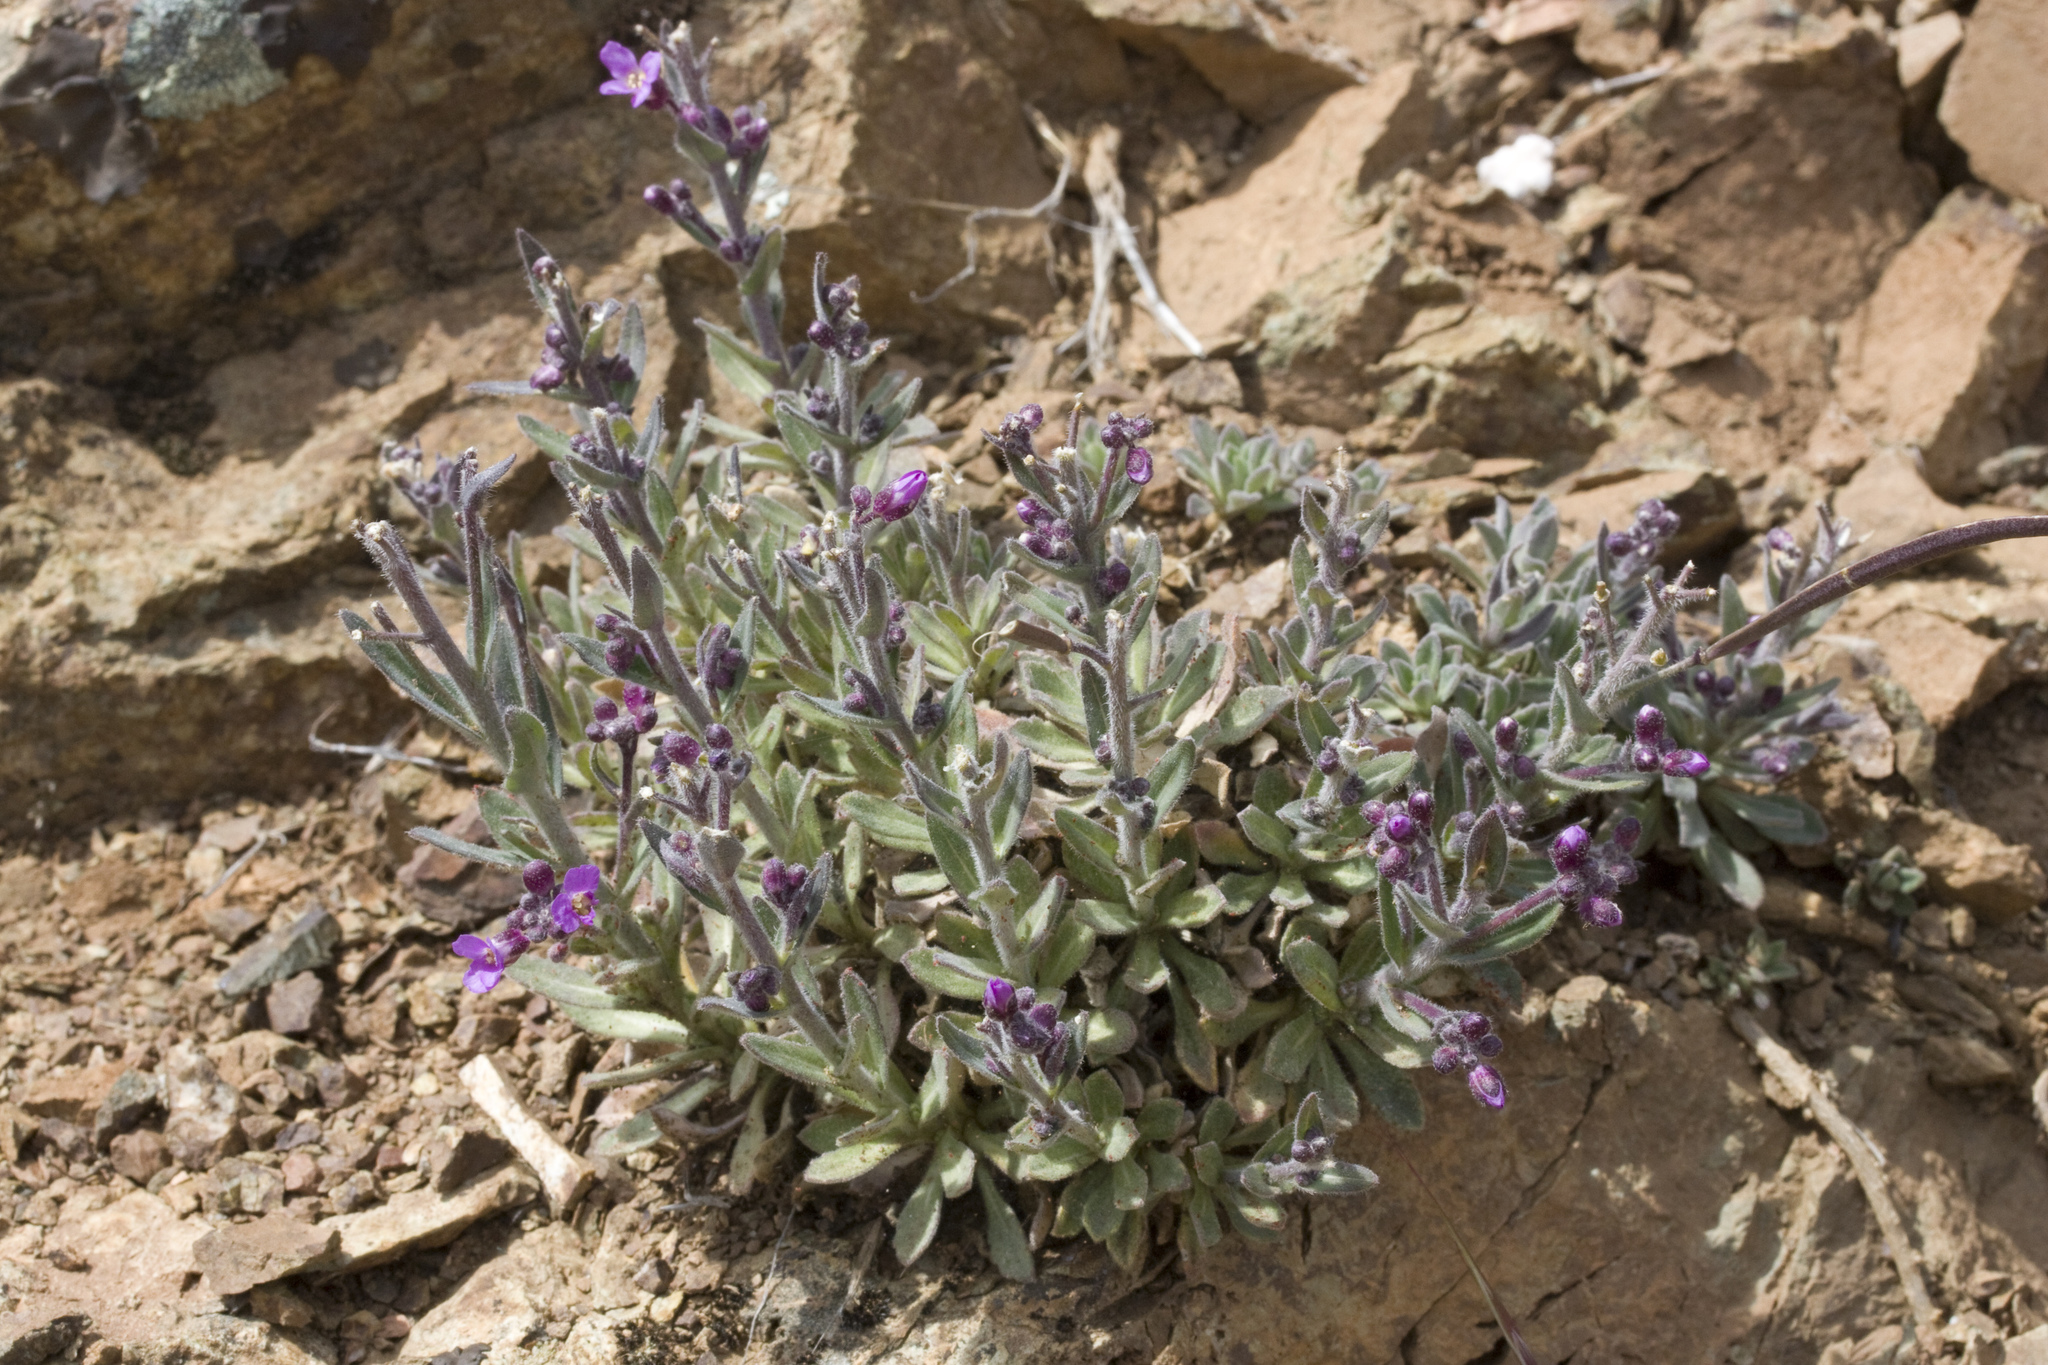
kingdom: Plantae
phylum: Tracheophyta
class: Magnoliopsida
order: Brassicales
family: Brassicaceae
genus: Boechera
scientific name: Boechera breweri
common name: Brewer's rockcress
